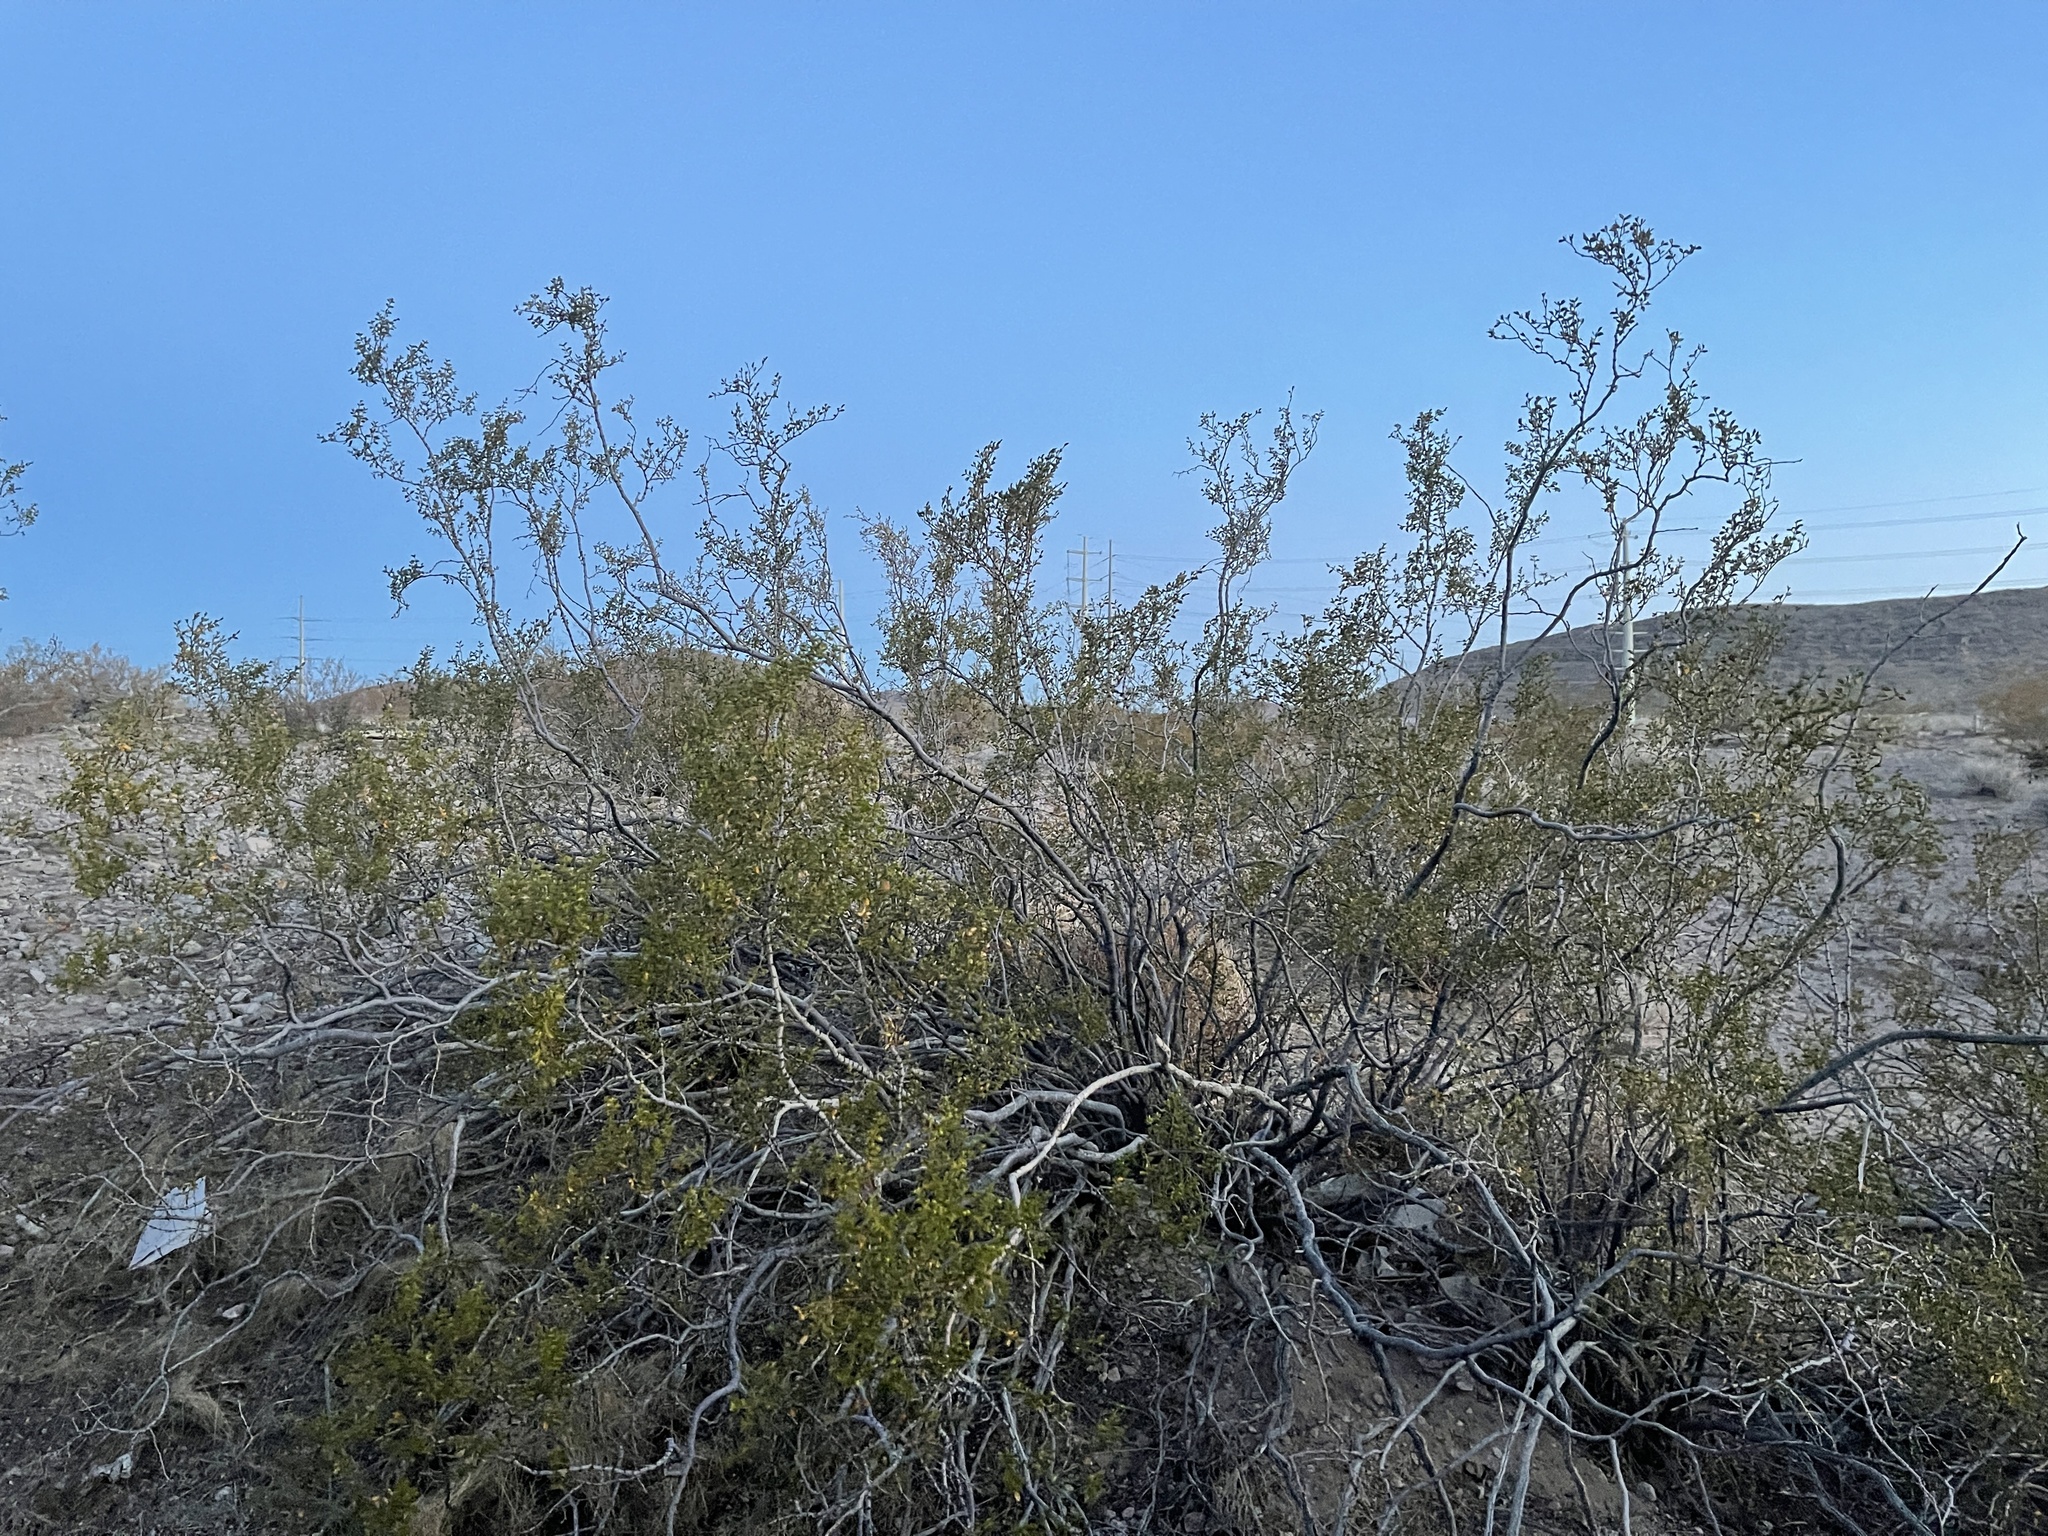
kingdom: Plantae
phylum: Tracheophyta
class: Magnoliopsida
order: Zygophyllales
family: Zygophyllaceae
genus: Larrea
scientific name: Larrea tridentata
